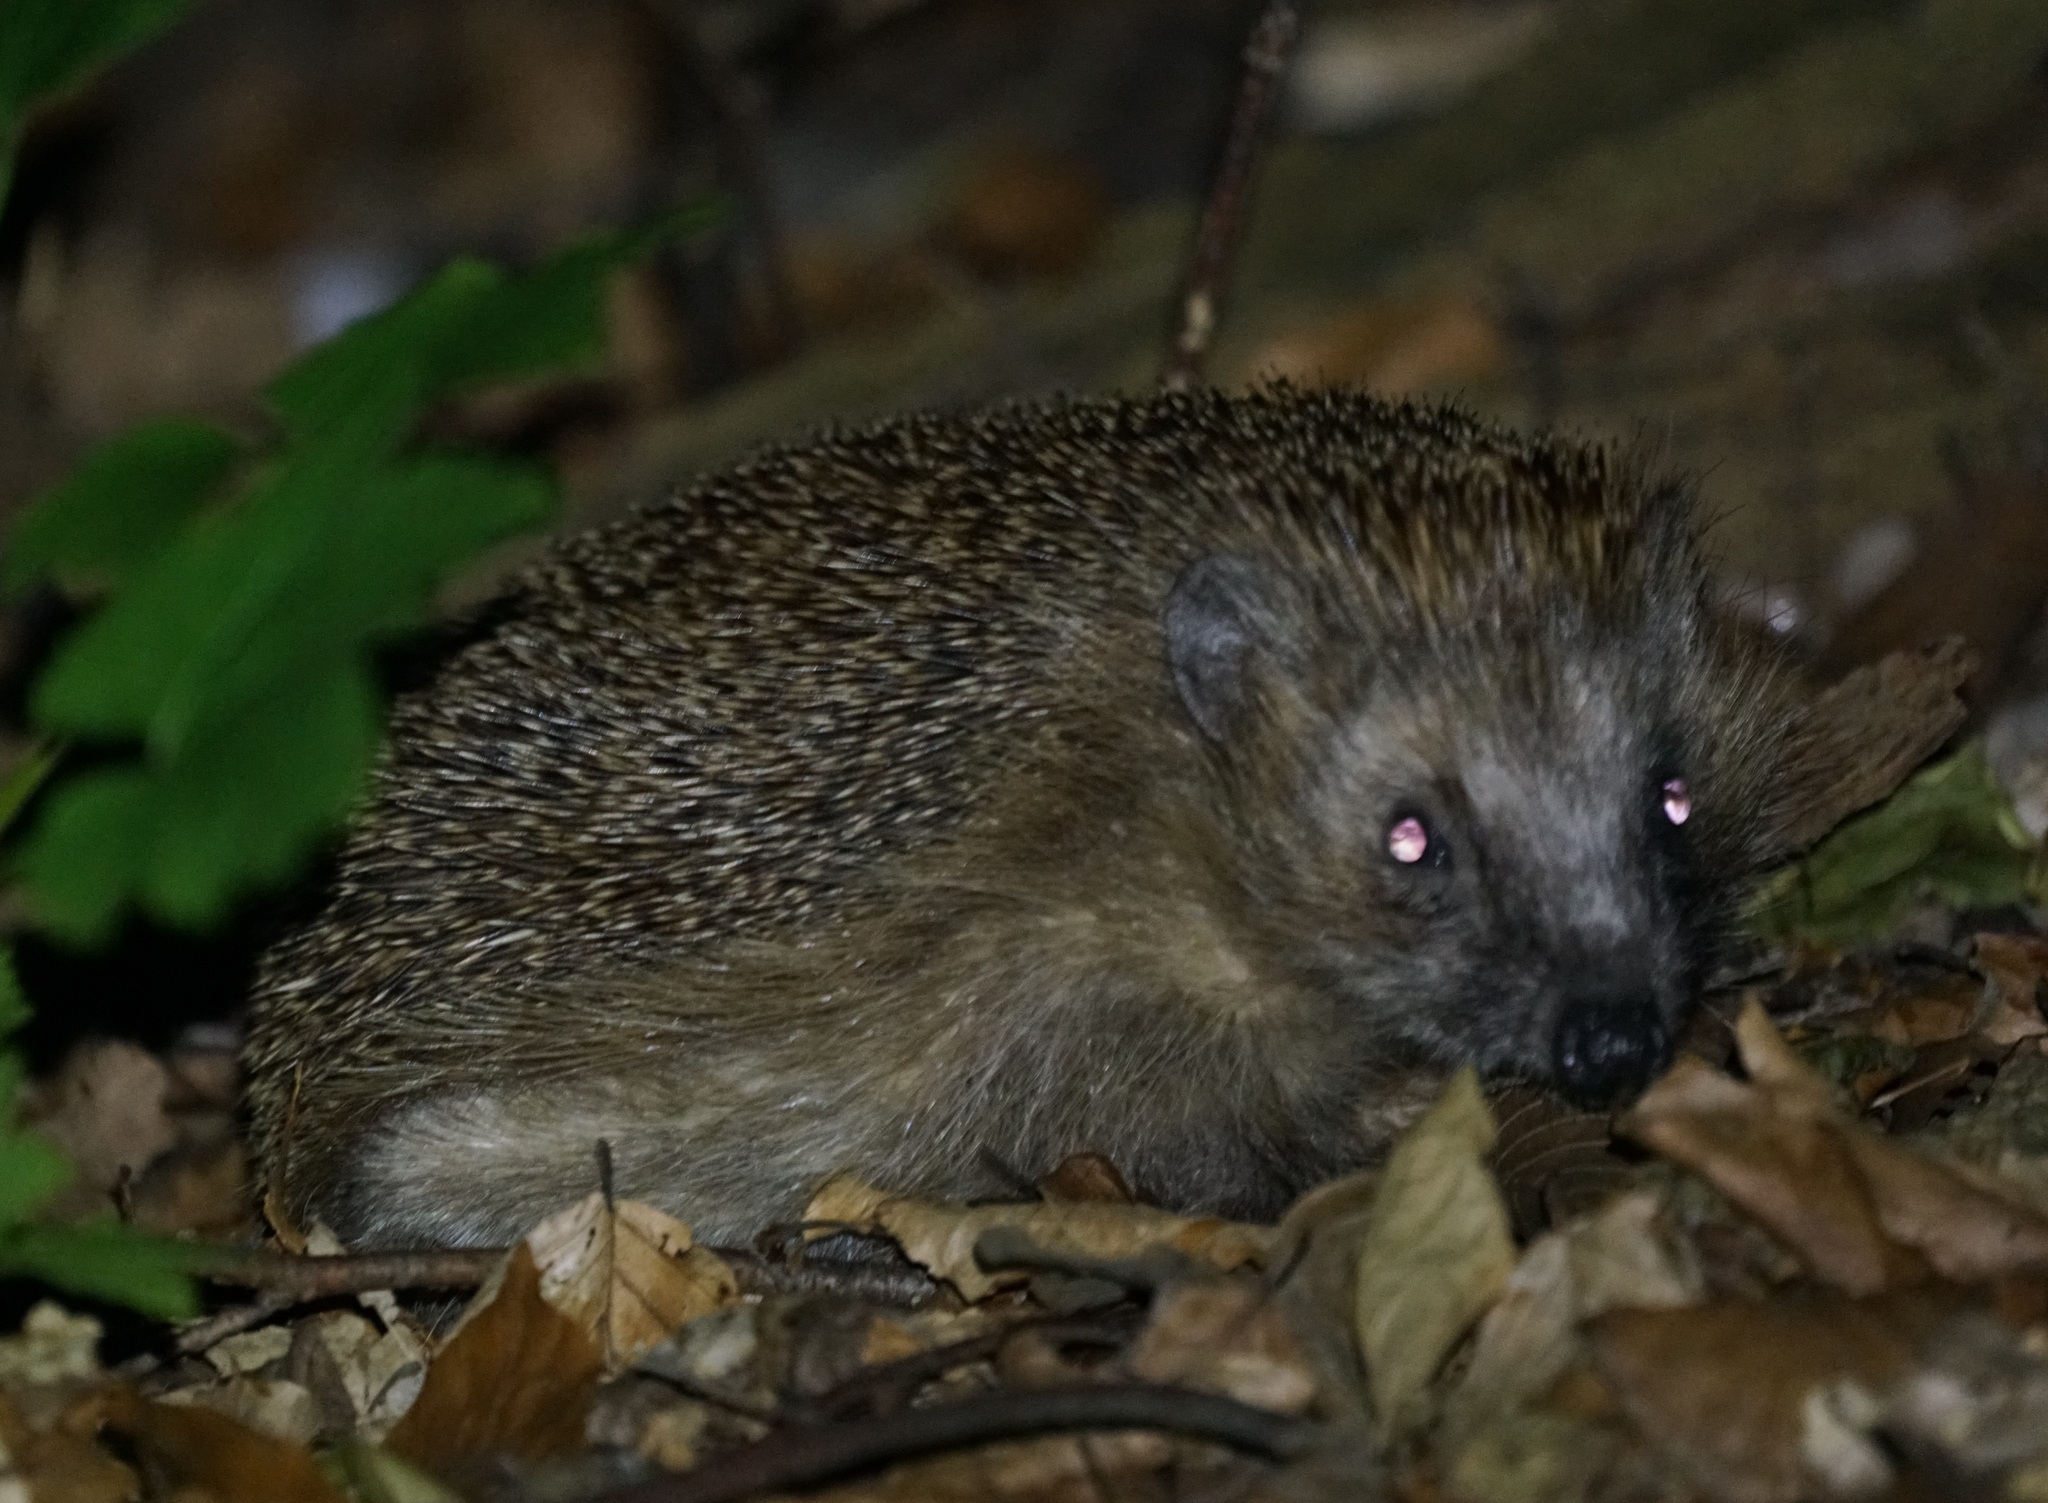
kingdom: Animalia
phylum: Chordata
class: Mammalia
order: Erinaceomorpha
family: Erinaceidae
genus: Erinaceus
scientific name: Erinaceus europaeus
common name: West european hedgehog
